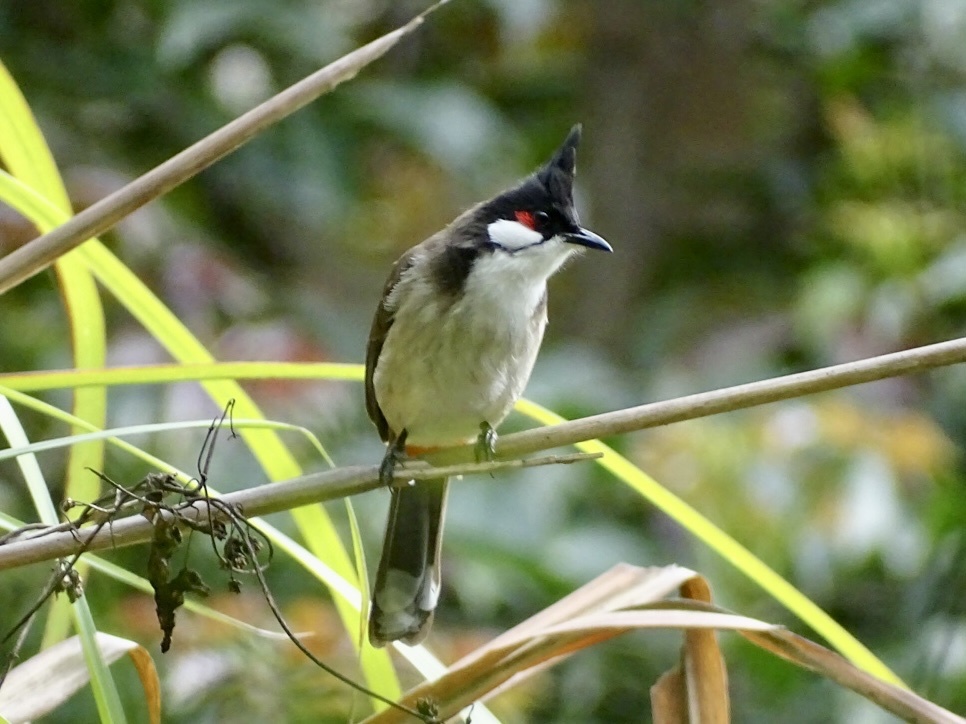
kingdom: Animalia
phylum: Chordata
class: Aves
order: Passeriformes
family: Pycnonotidae
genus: Pycnonotus
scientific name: Pycnonotus jocosus
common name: Red-whiskered bulbul
